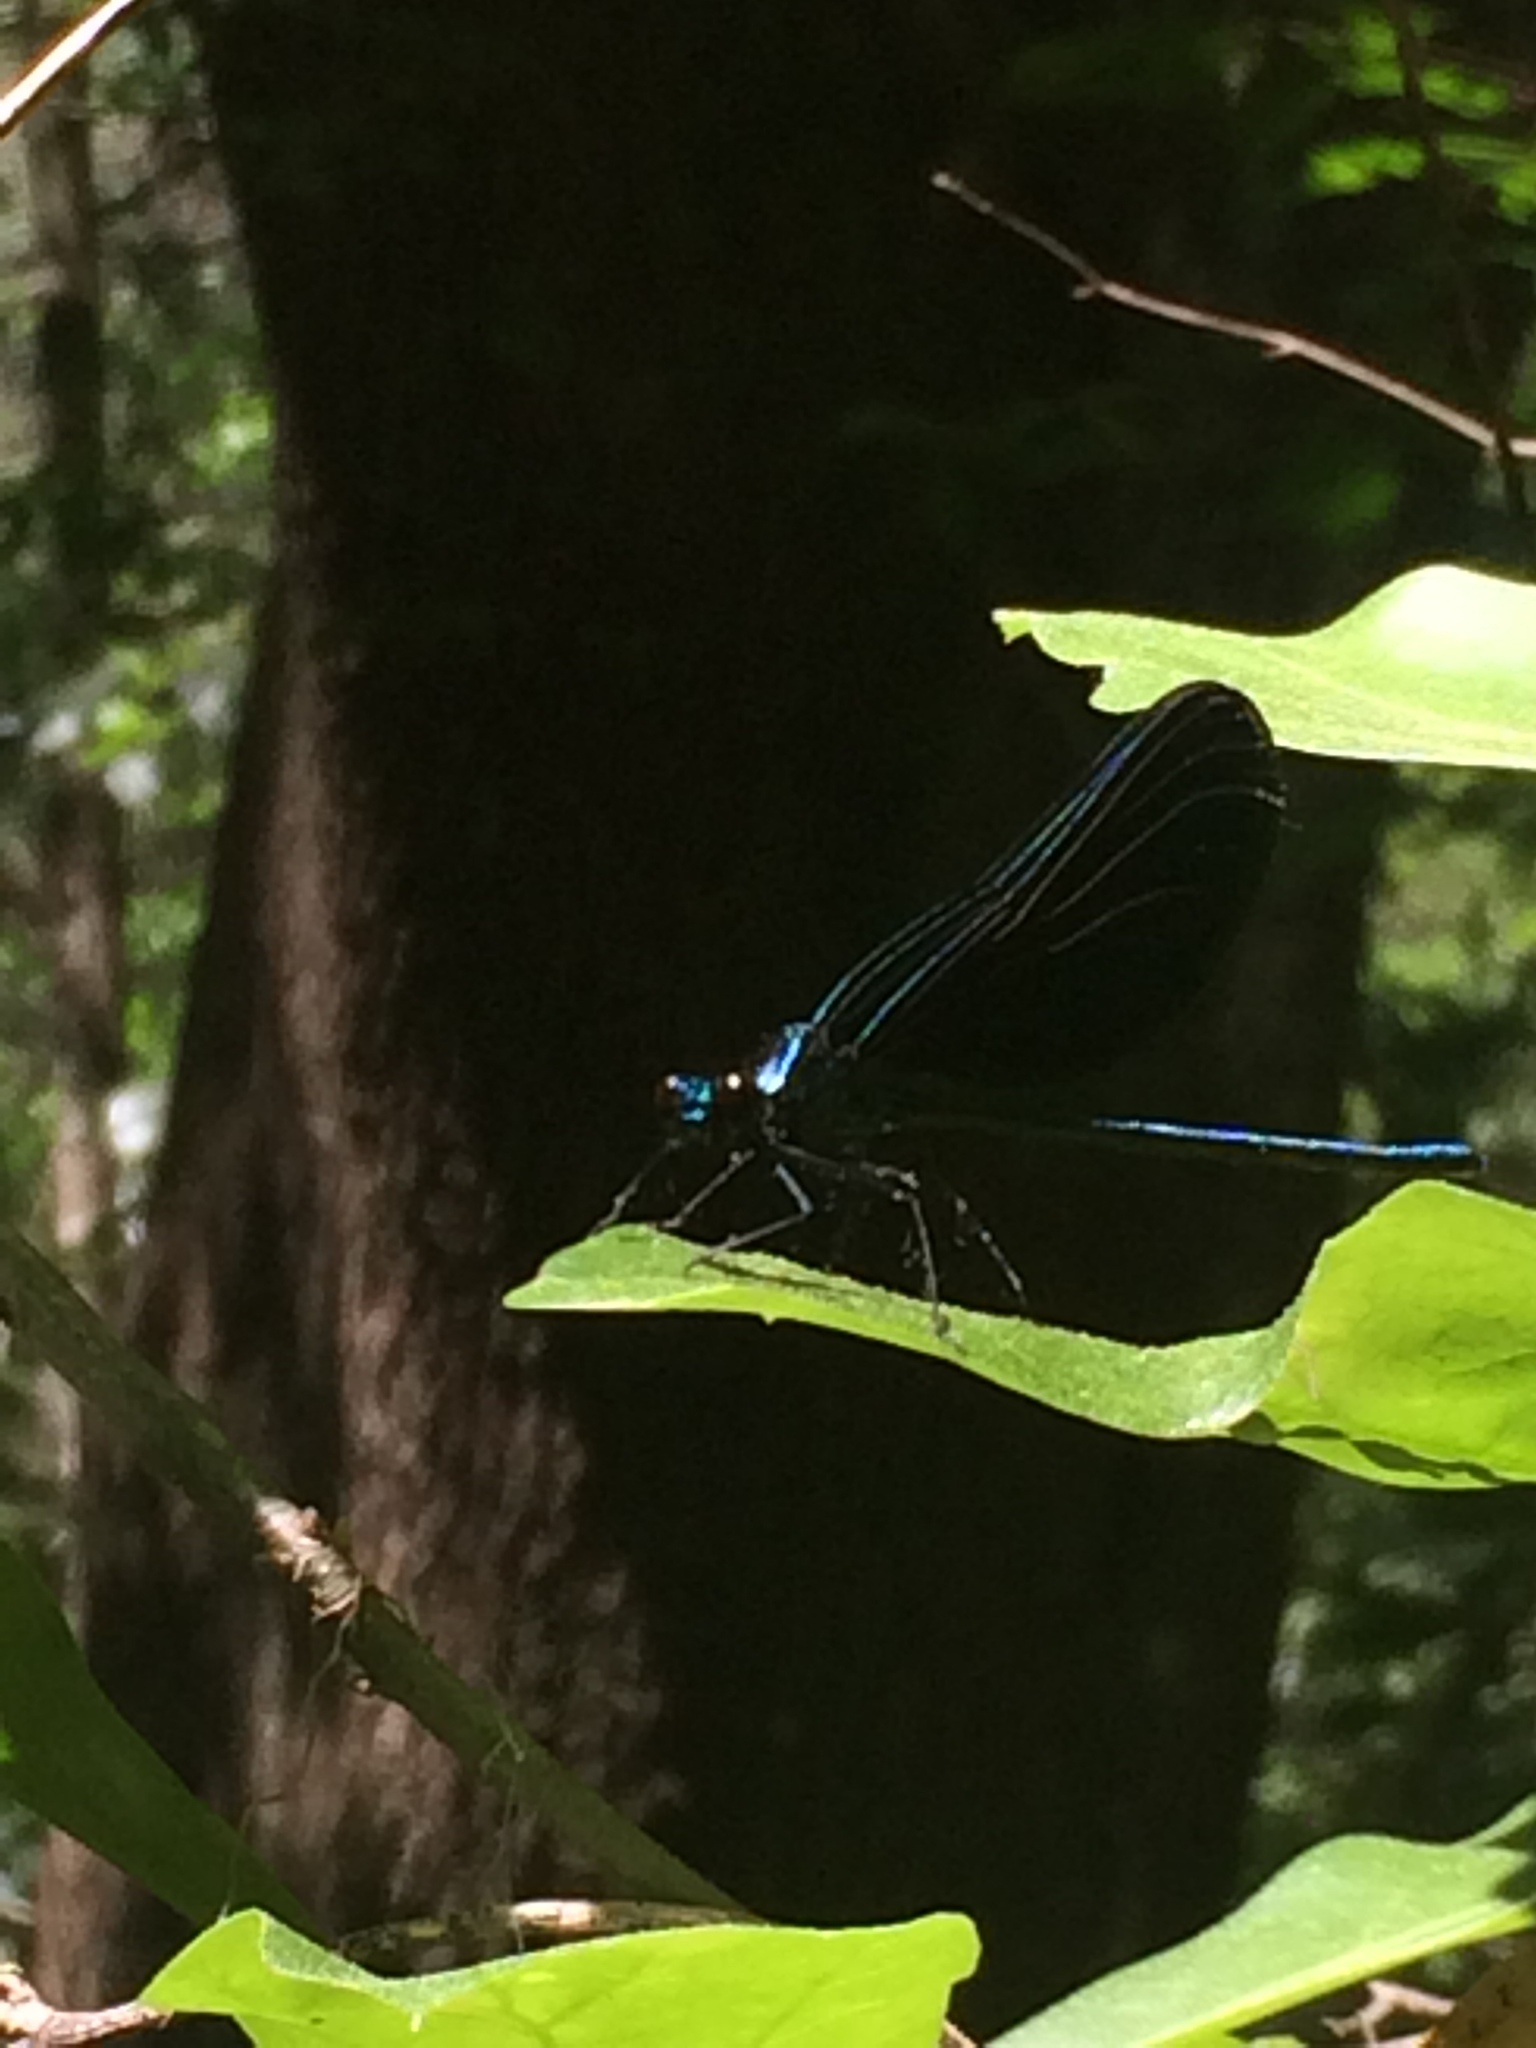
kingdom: Animalia
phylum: Arthropoda
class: Insecta
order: Odonata
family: Calopterygidae
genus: Calopteryx
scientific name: Calopteryx maculata
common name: Ebony jewelwing
